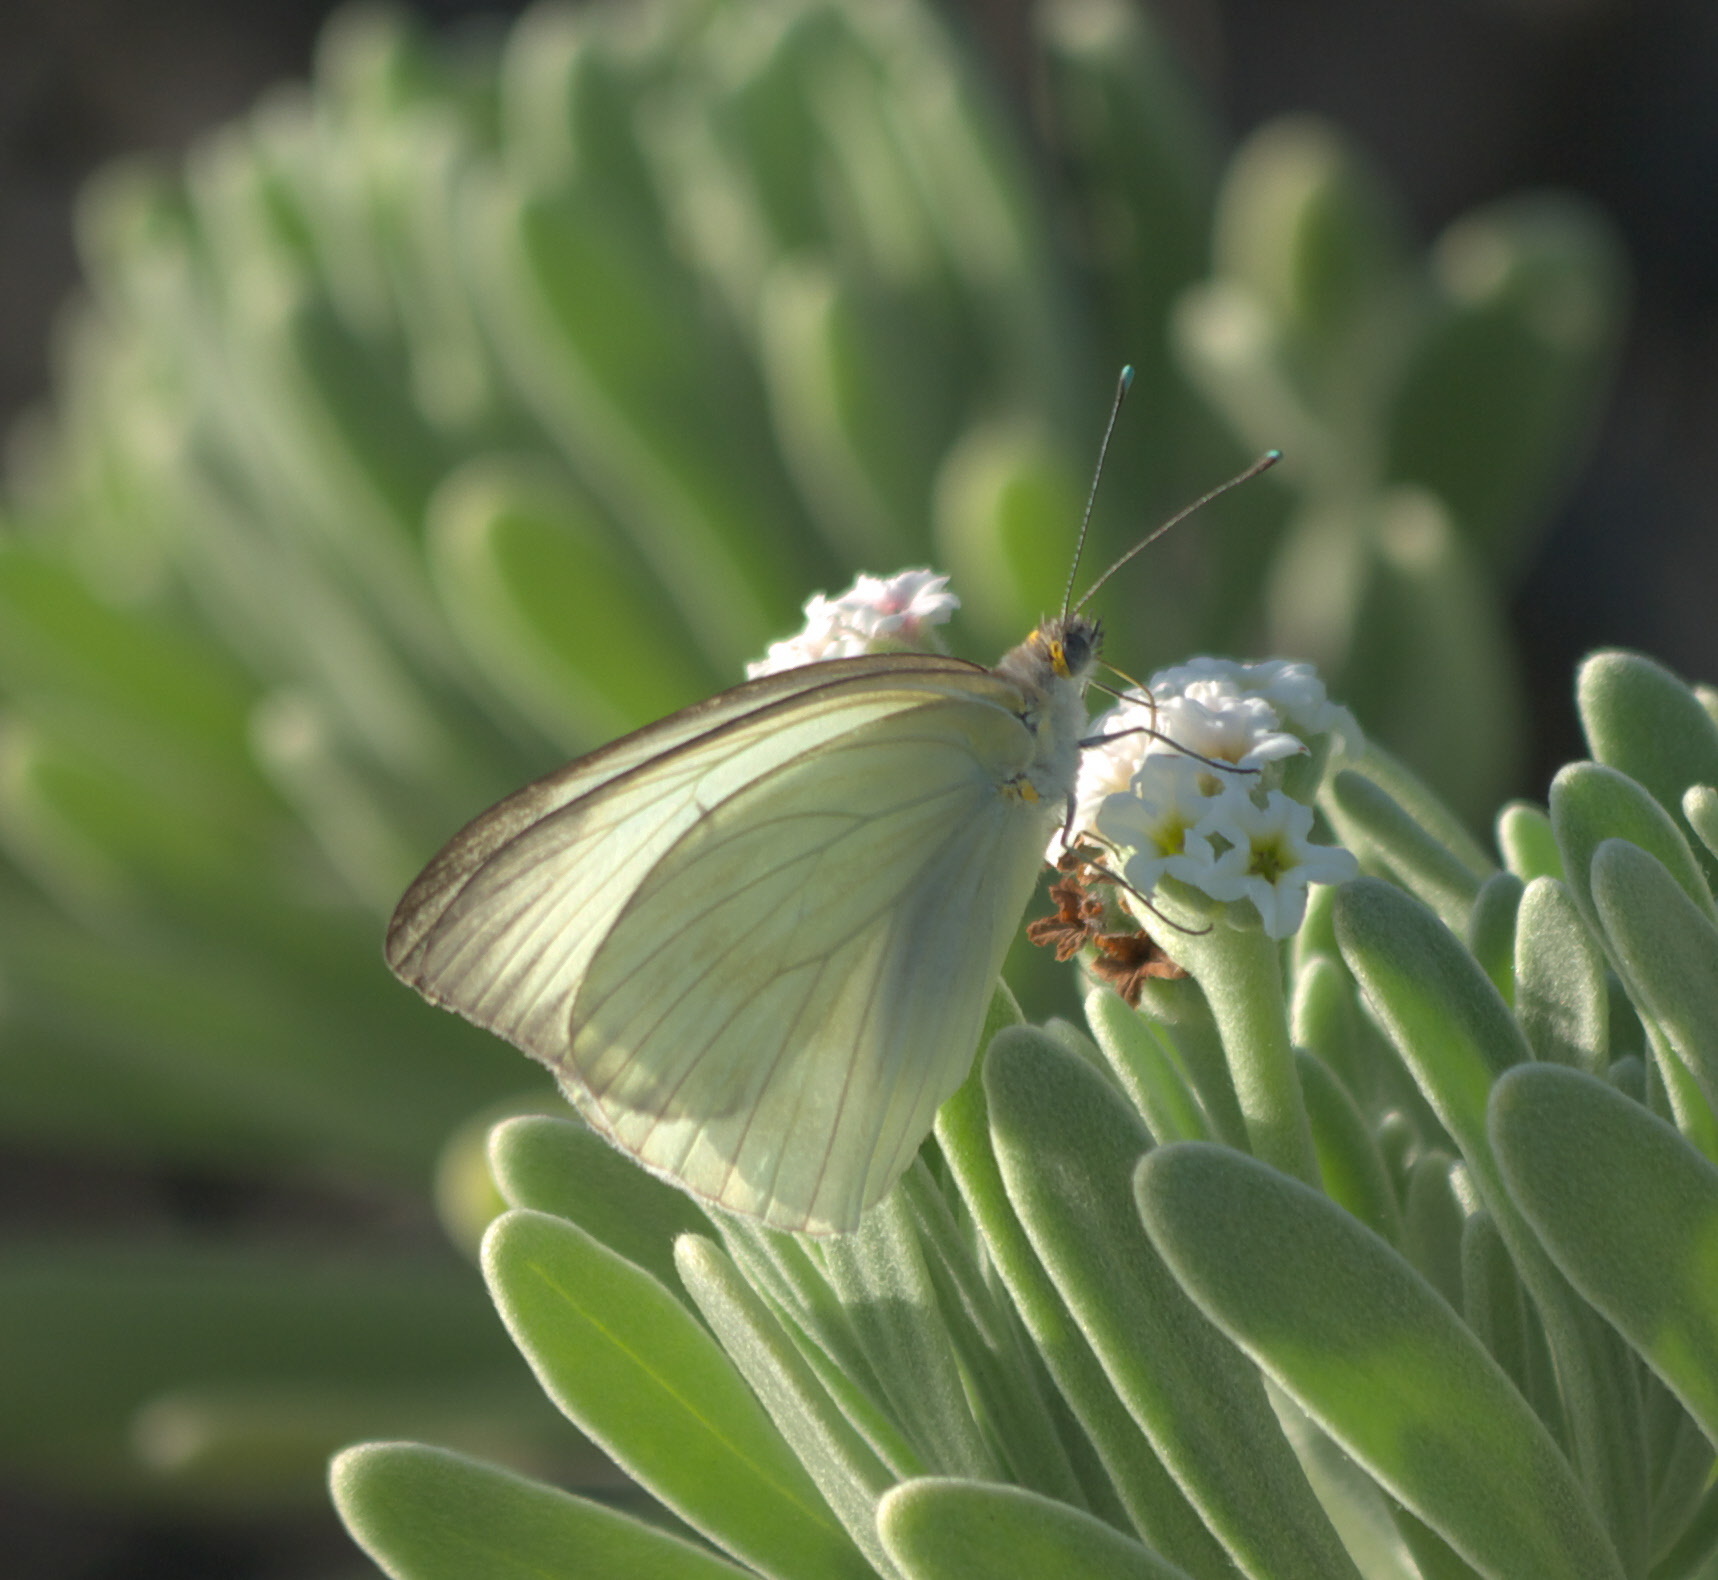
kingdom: Animalia
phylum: Arthropoda
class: Insecta
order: Lepidoptera
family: Pieridae
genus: Ascia
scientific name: Ascia monuste
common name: Great southern white
